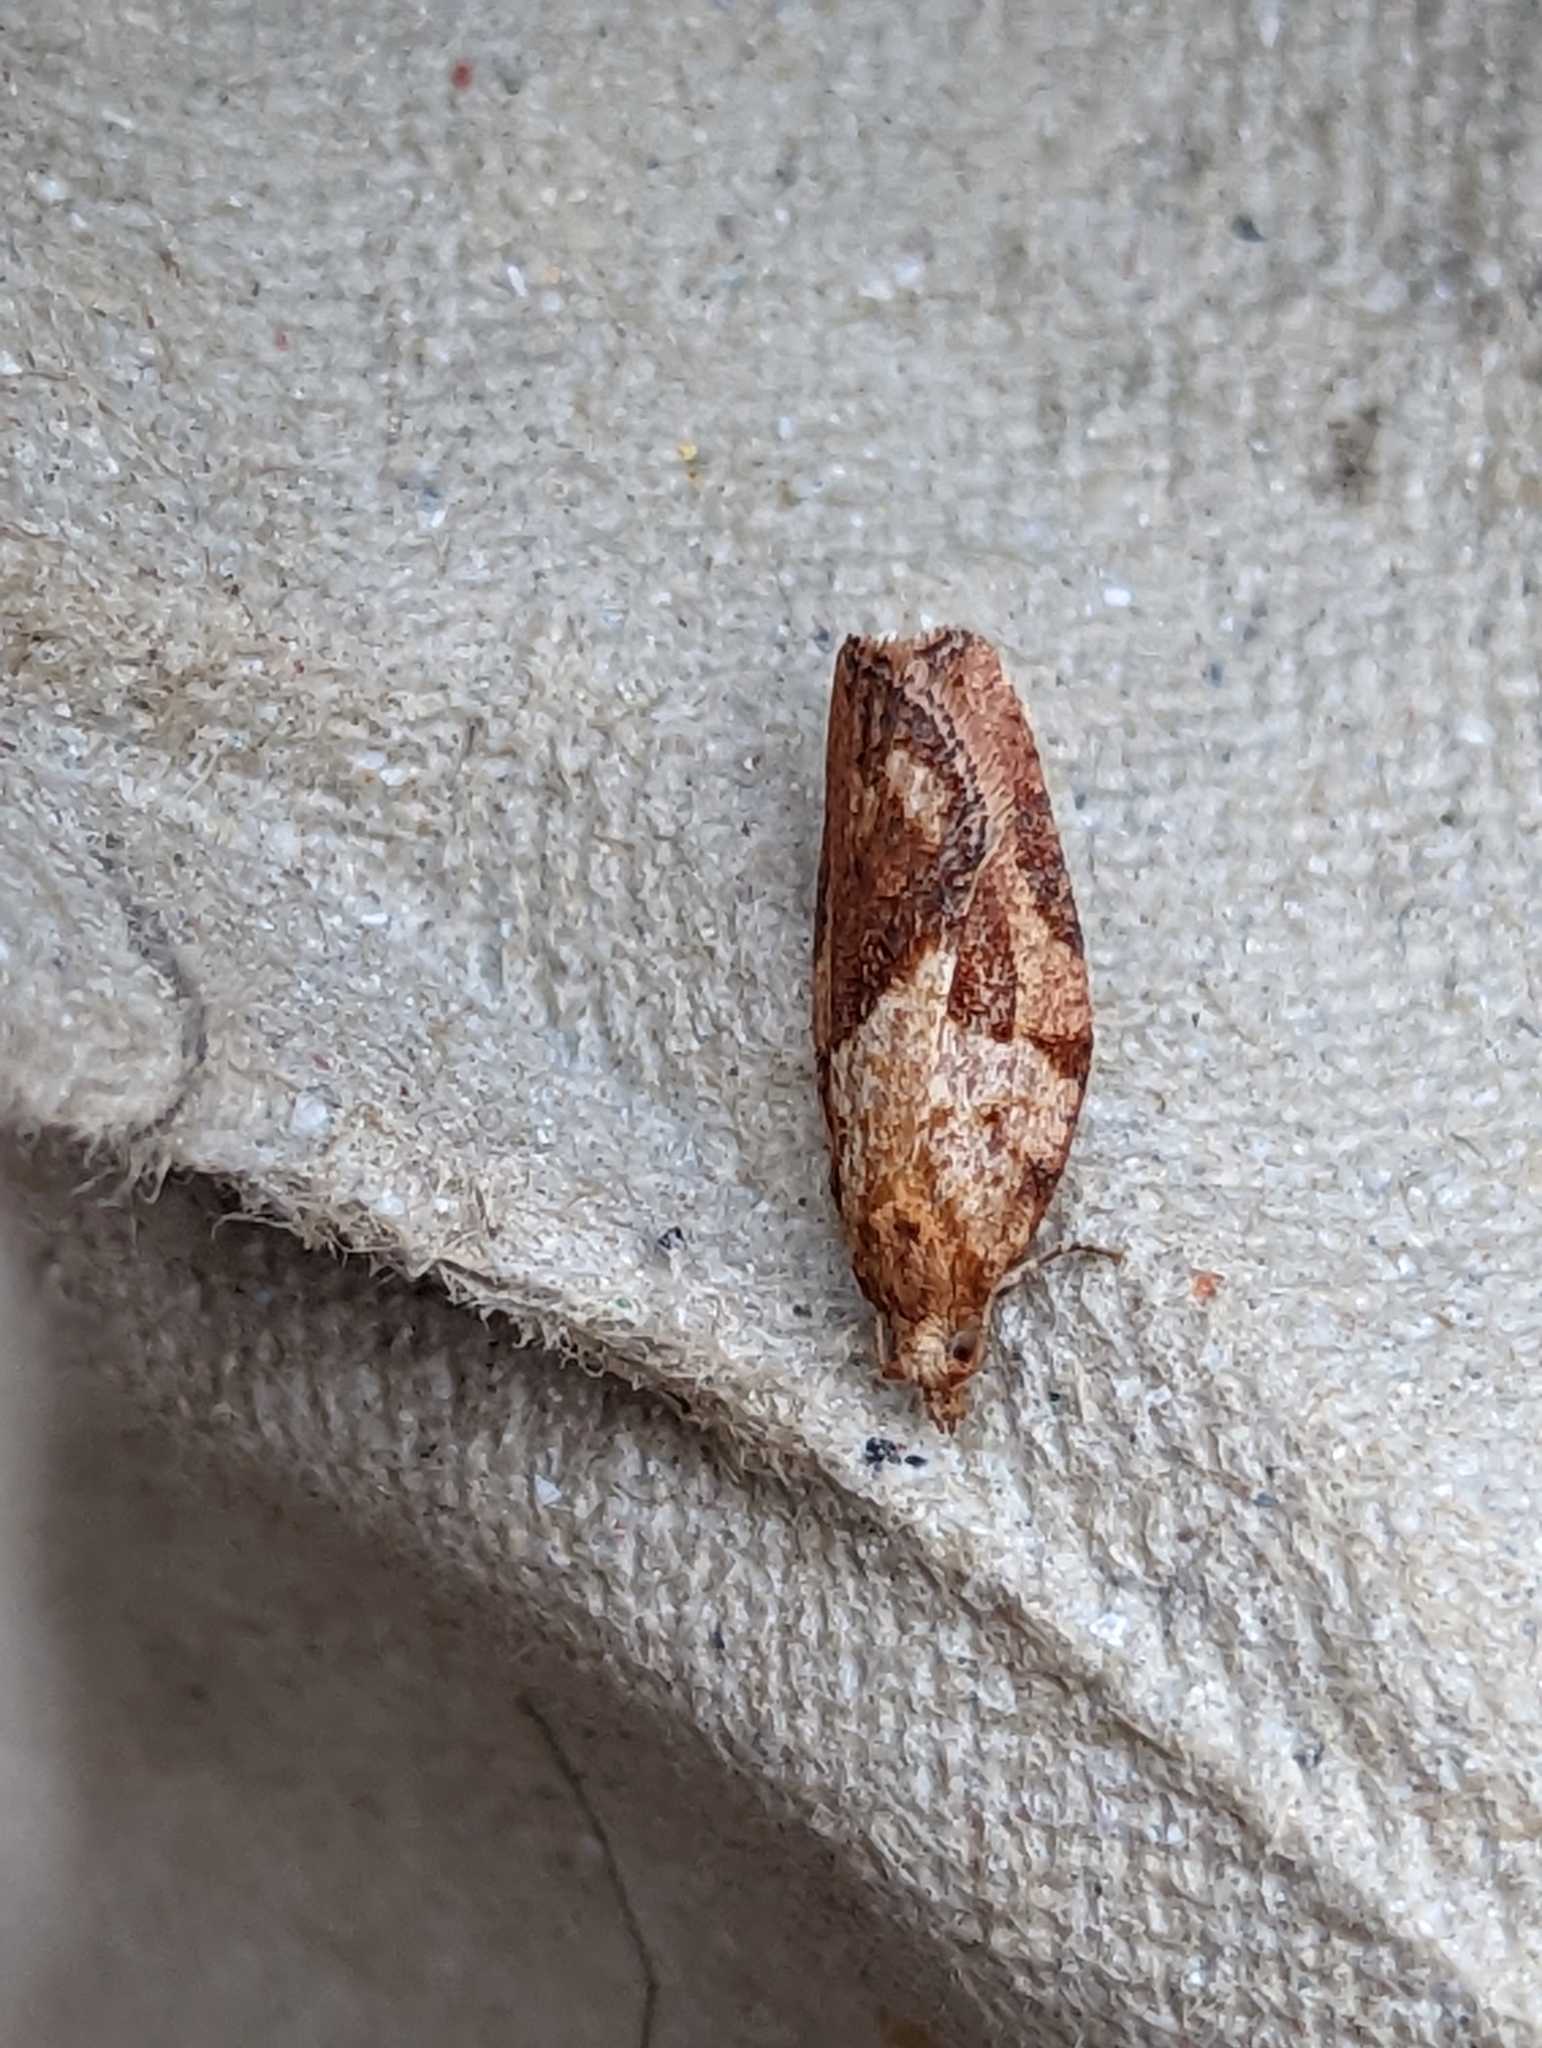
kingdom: Animalia
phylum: Arthropoda
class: Insecta
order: Lepidoptera
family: Tortricidae
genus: Epiphyas
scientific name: Epiphyas postvittana
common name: Light brown apple moth
